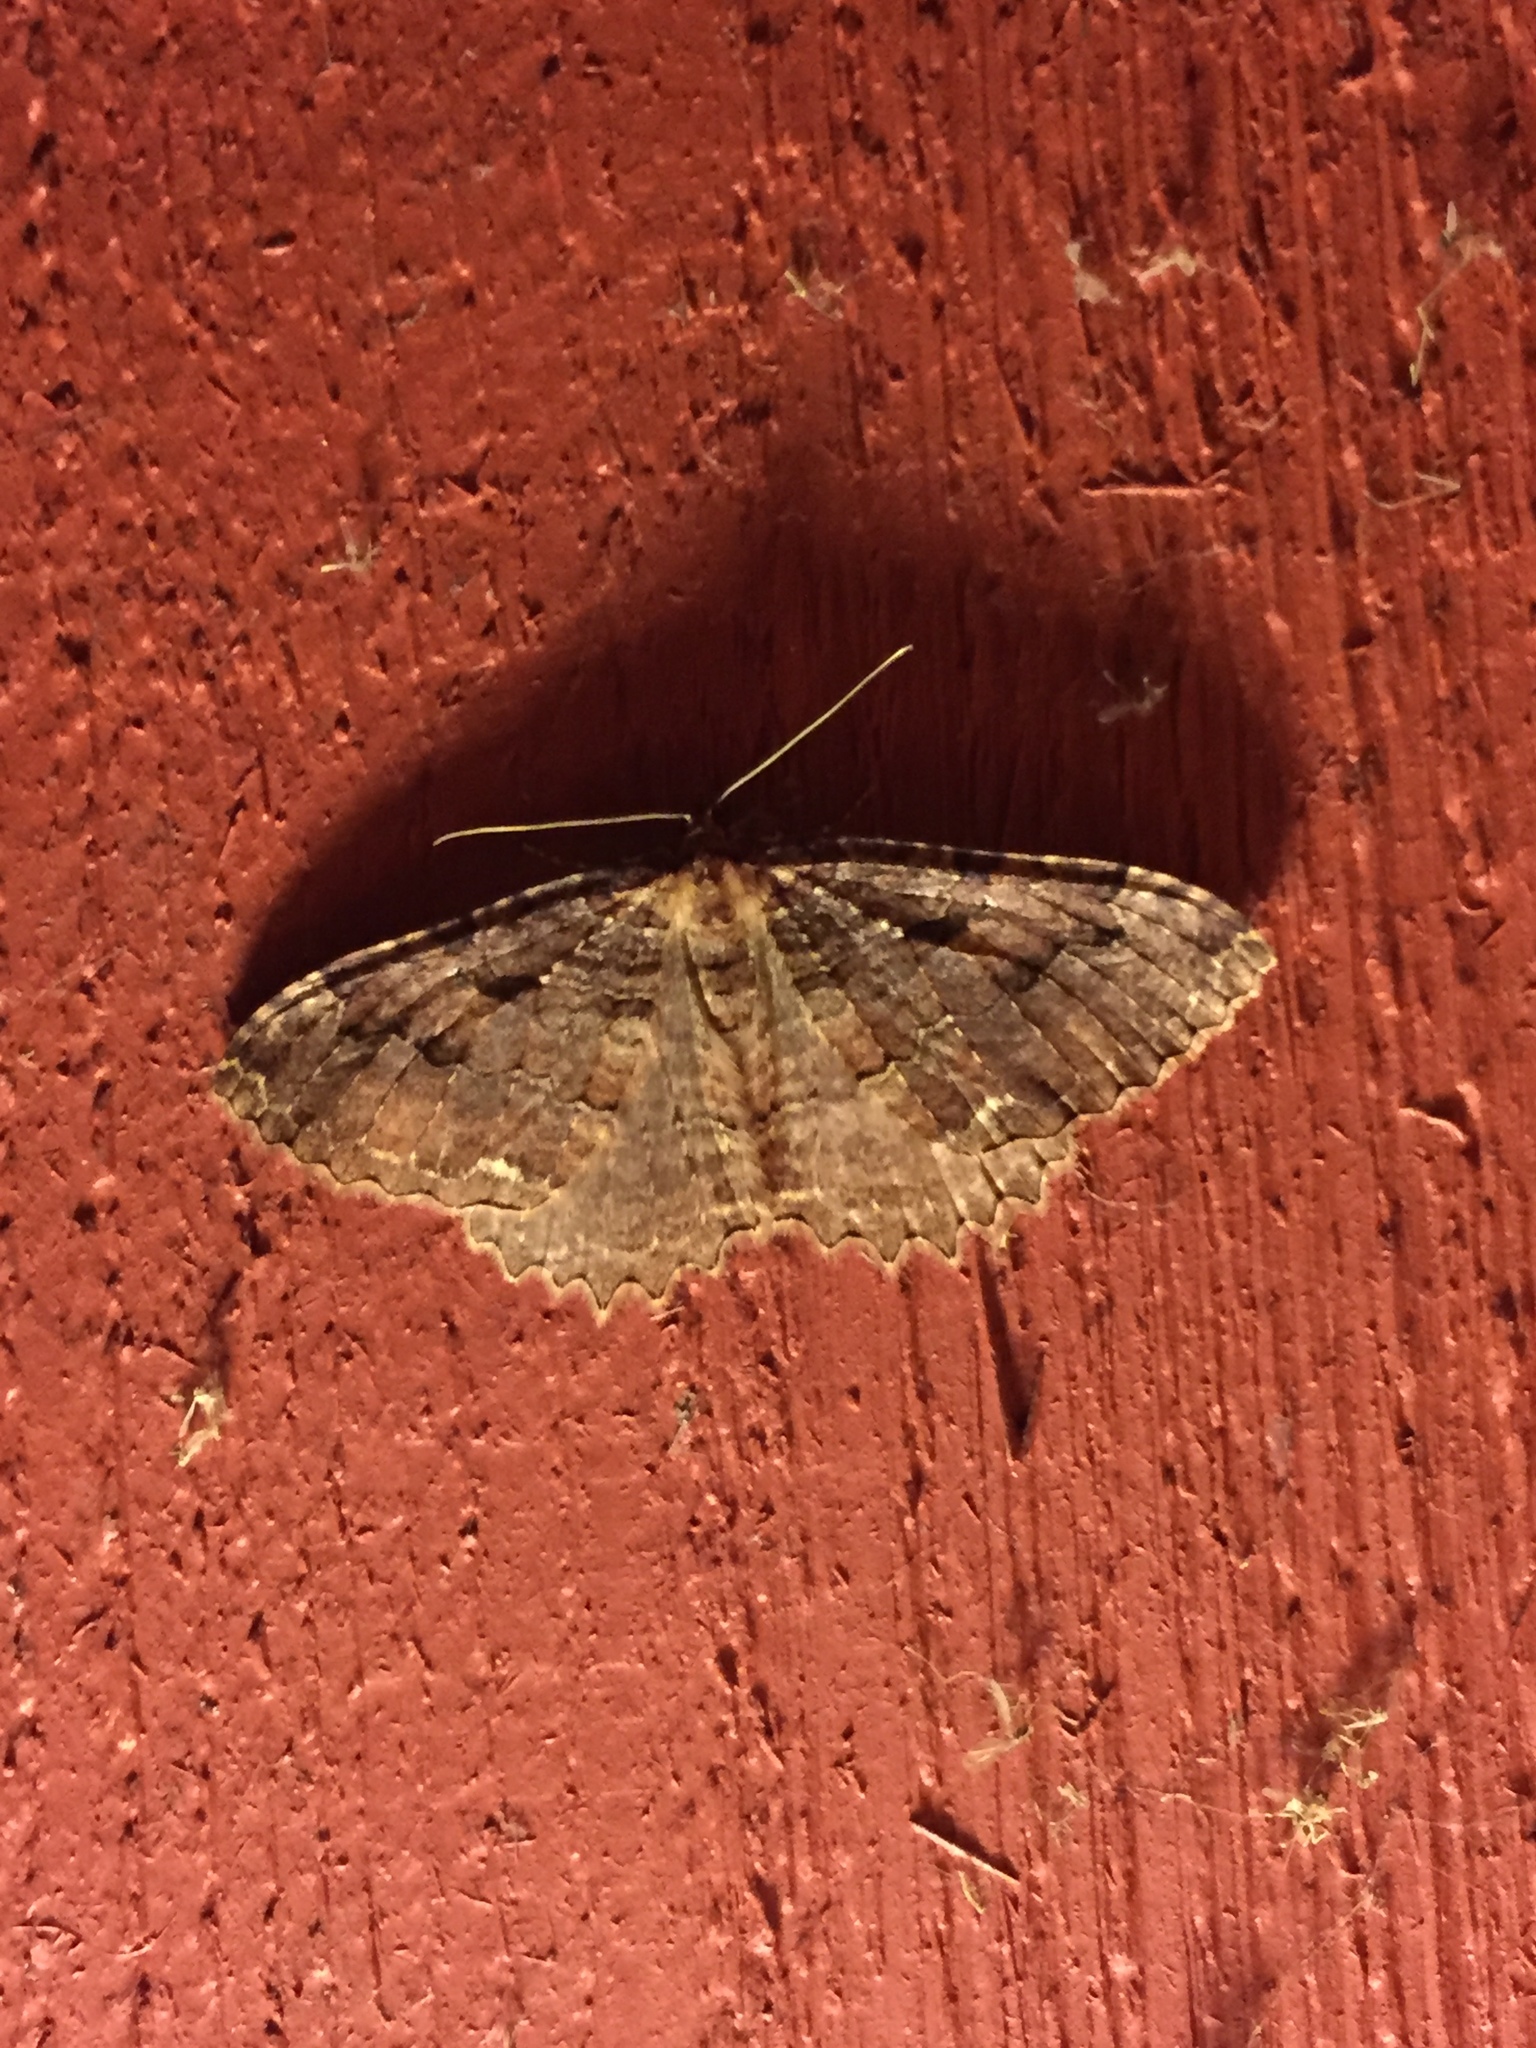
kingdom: Animalia
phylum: Arthropoda
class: Insecta
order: Lepidoptera
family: Geometridae
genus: Triphosa
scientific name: Triphosa haesitata
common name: Tissue moth
